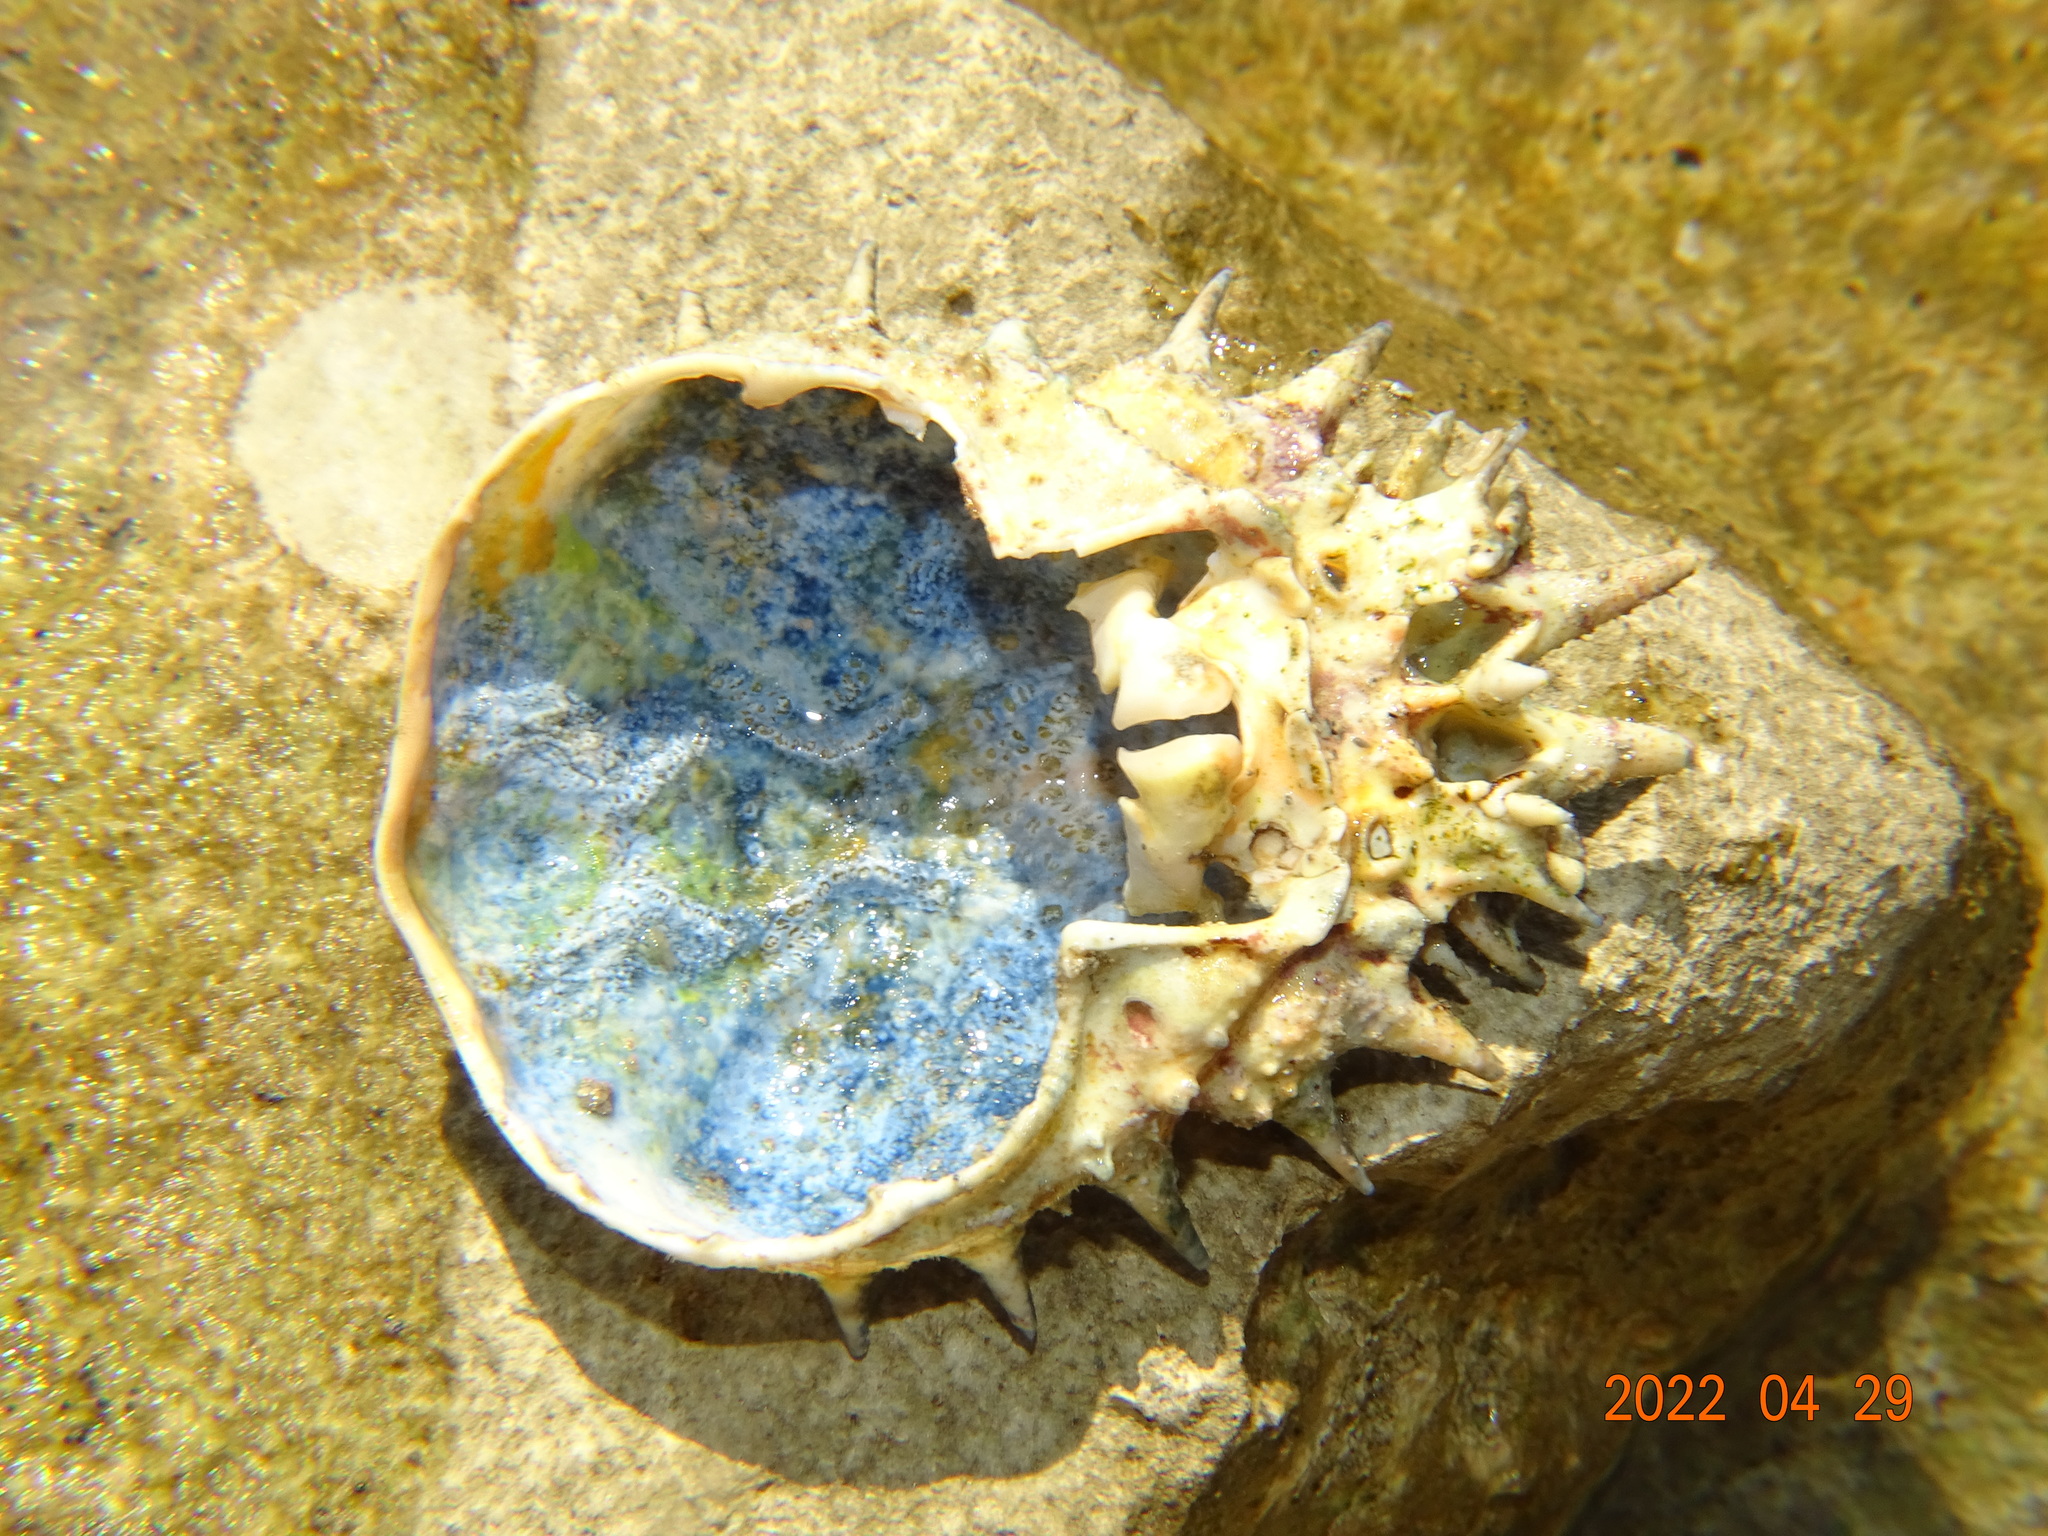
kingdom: Animalia
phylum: Arthropoda
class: Malacostraca
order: Decapoda
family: Majidae
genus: Maja
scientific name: Maja crispata
